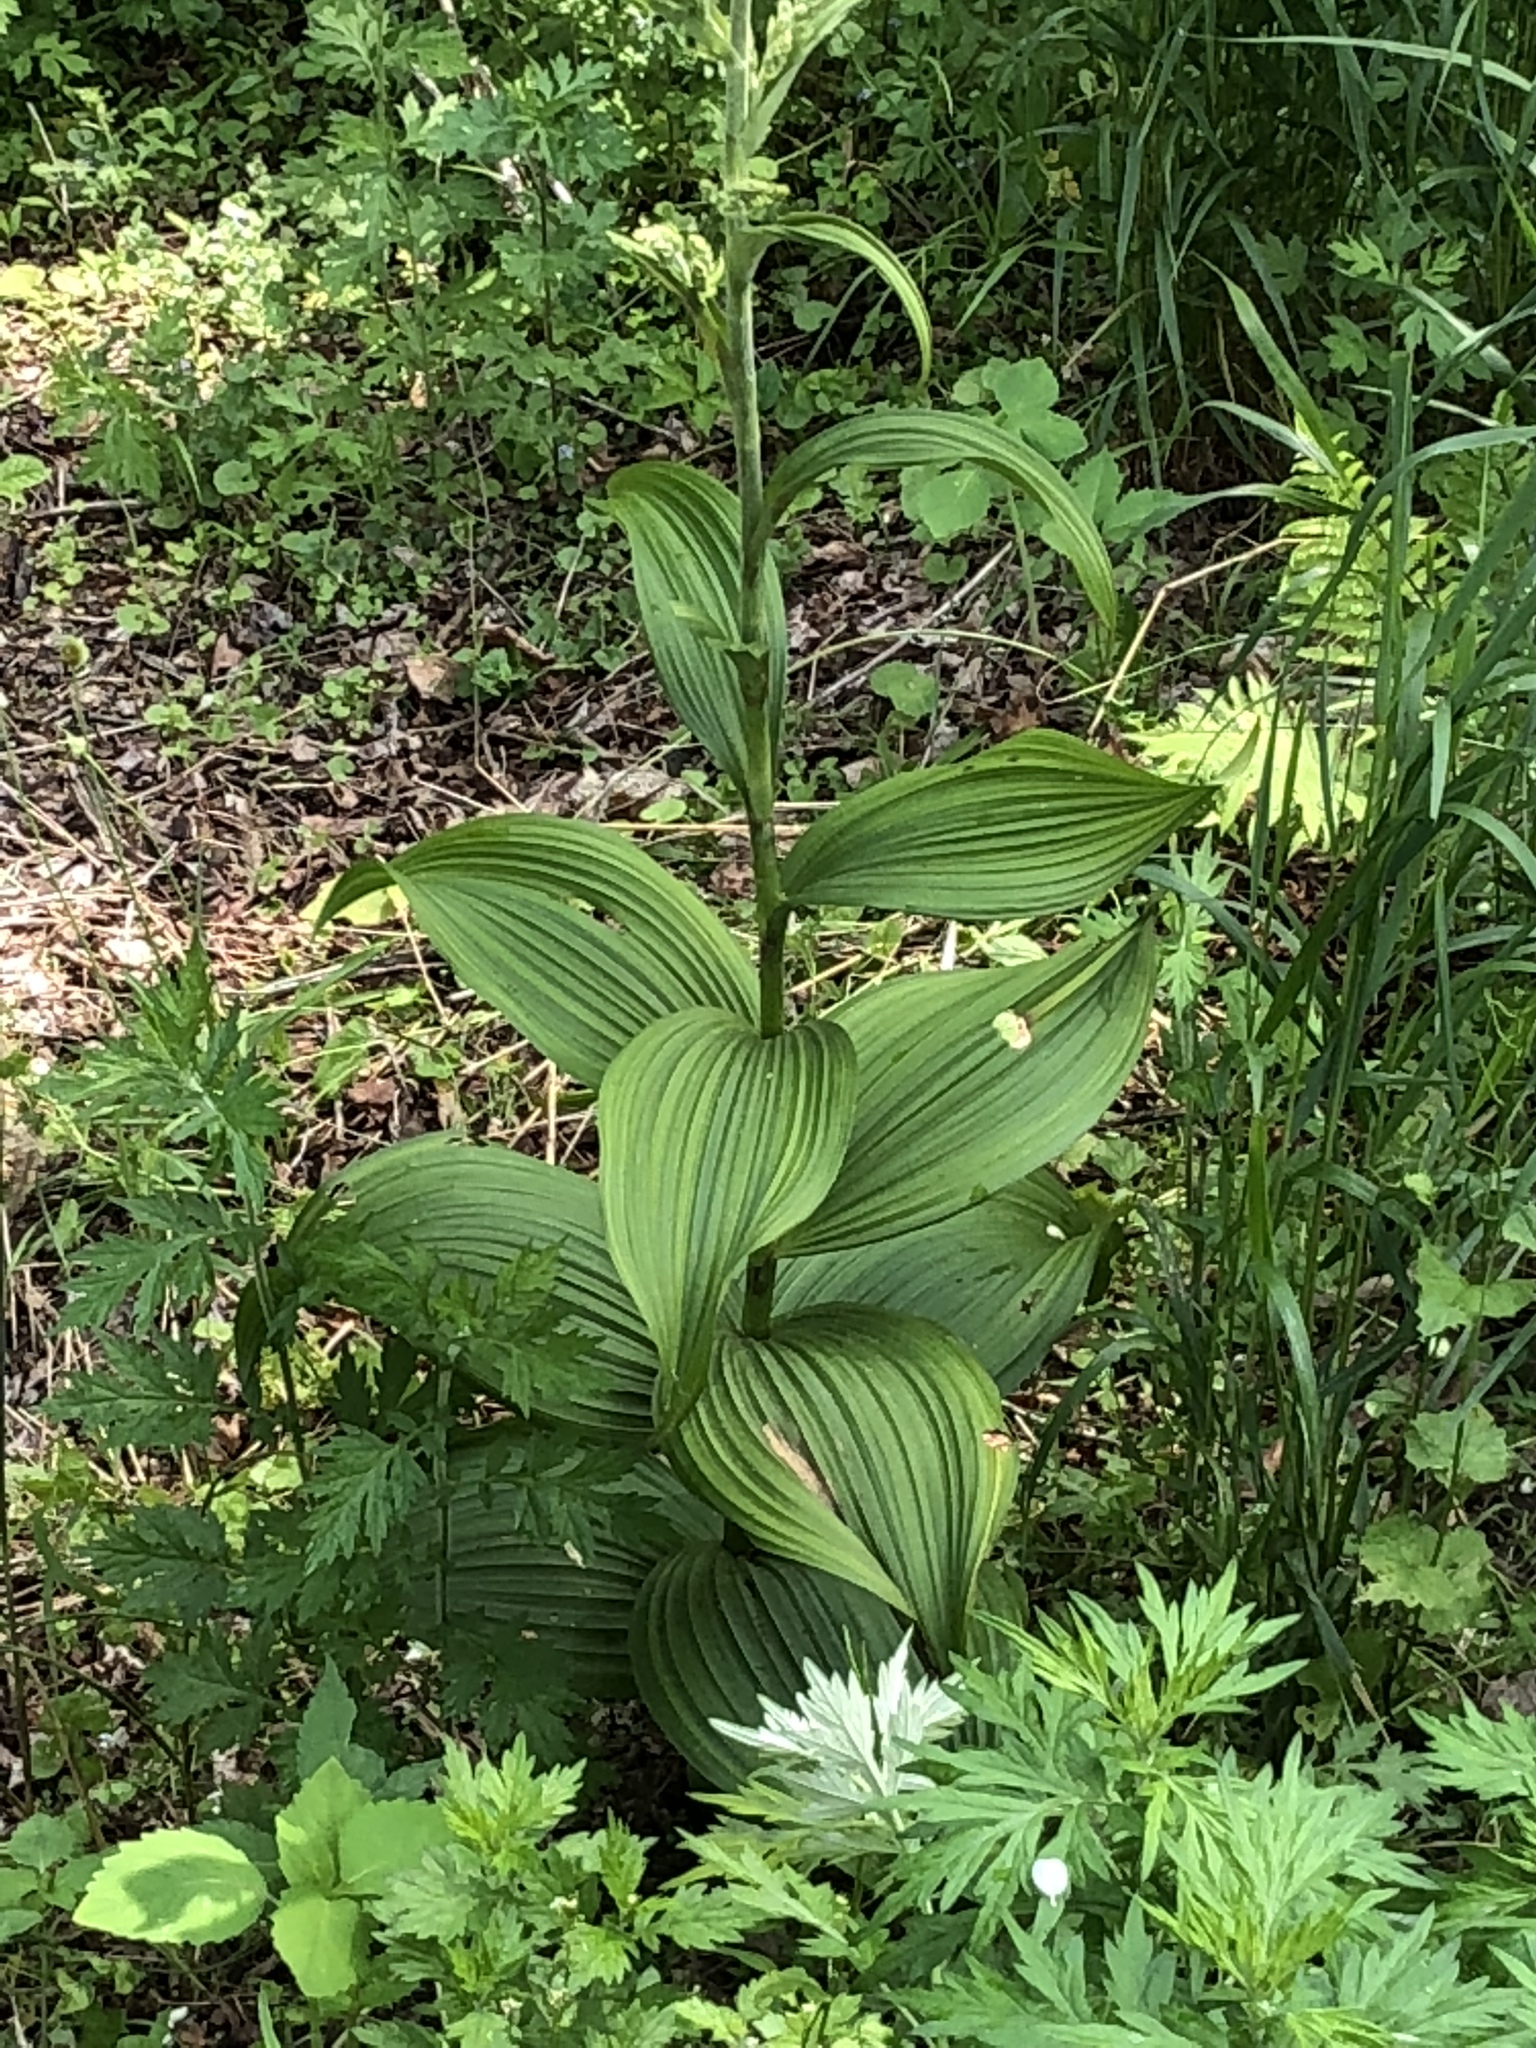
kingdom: Plantae
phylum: Tracheophyta
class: Liliopsida
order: Liliales
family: Melanthiaceae
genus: Veratrum
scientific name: Veratrum viride
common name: American false hellebore
